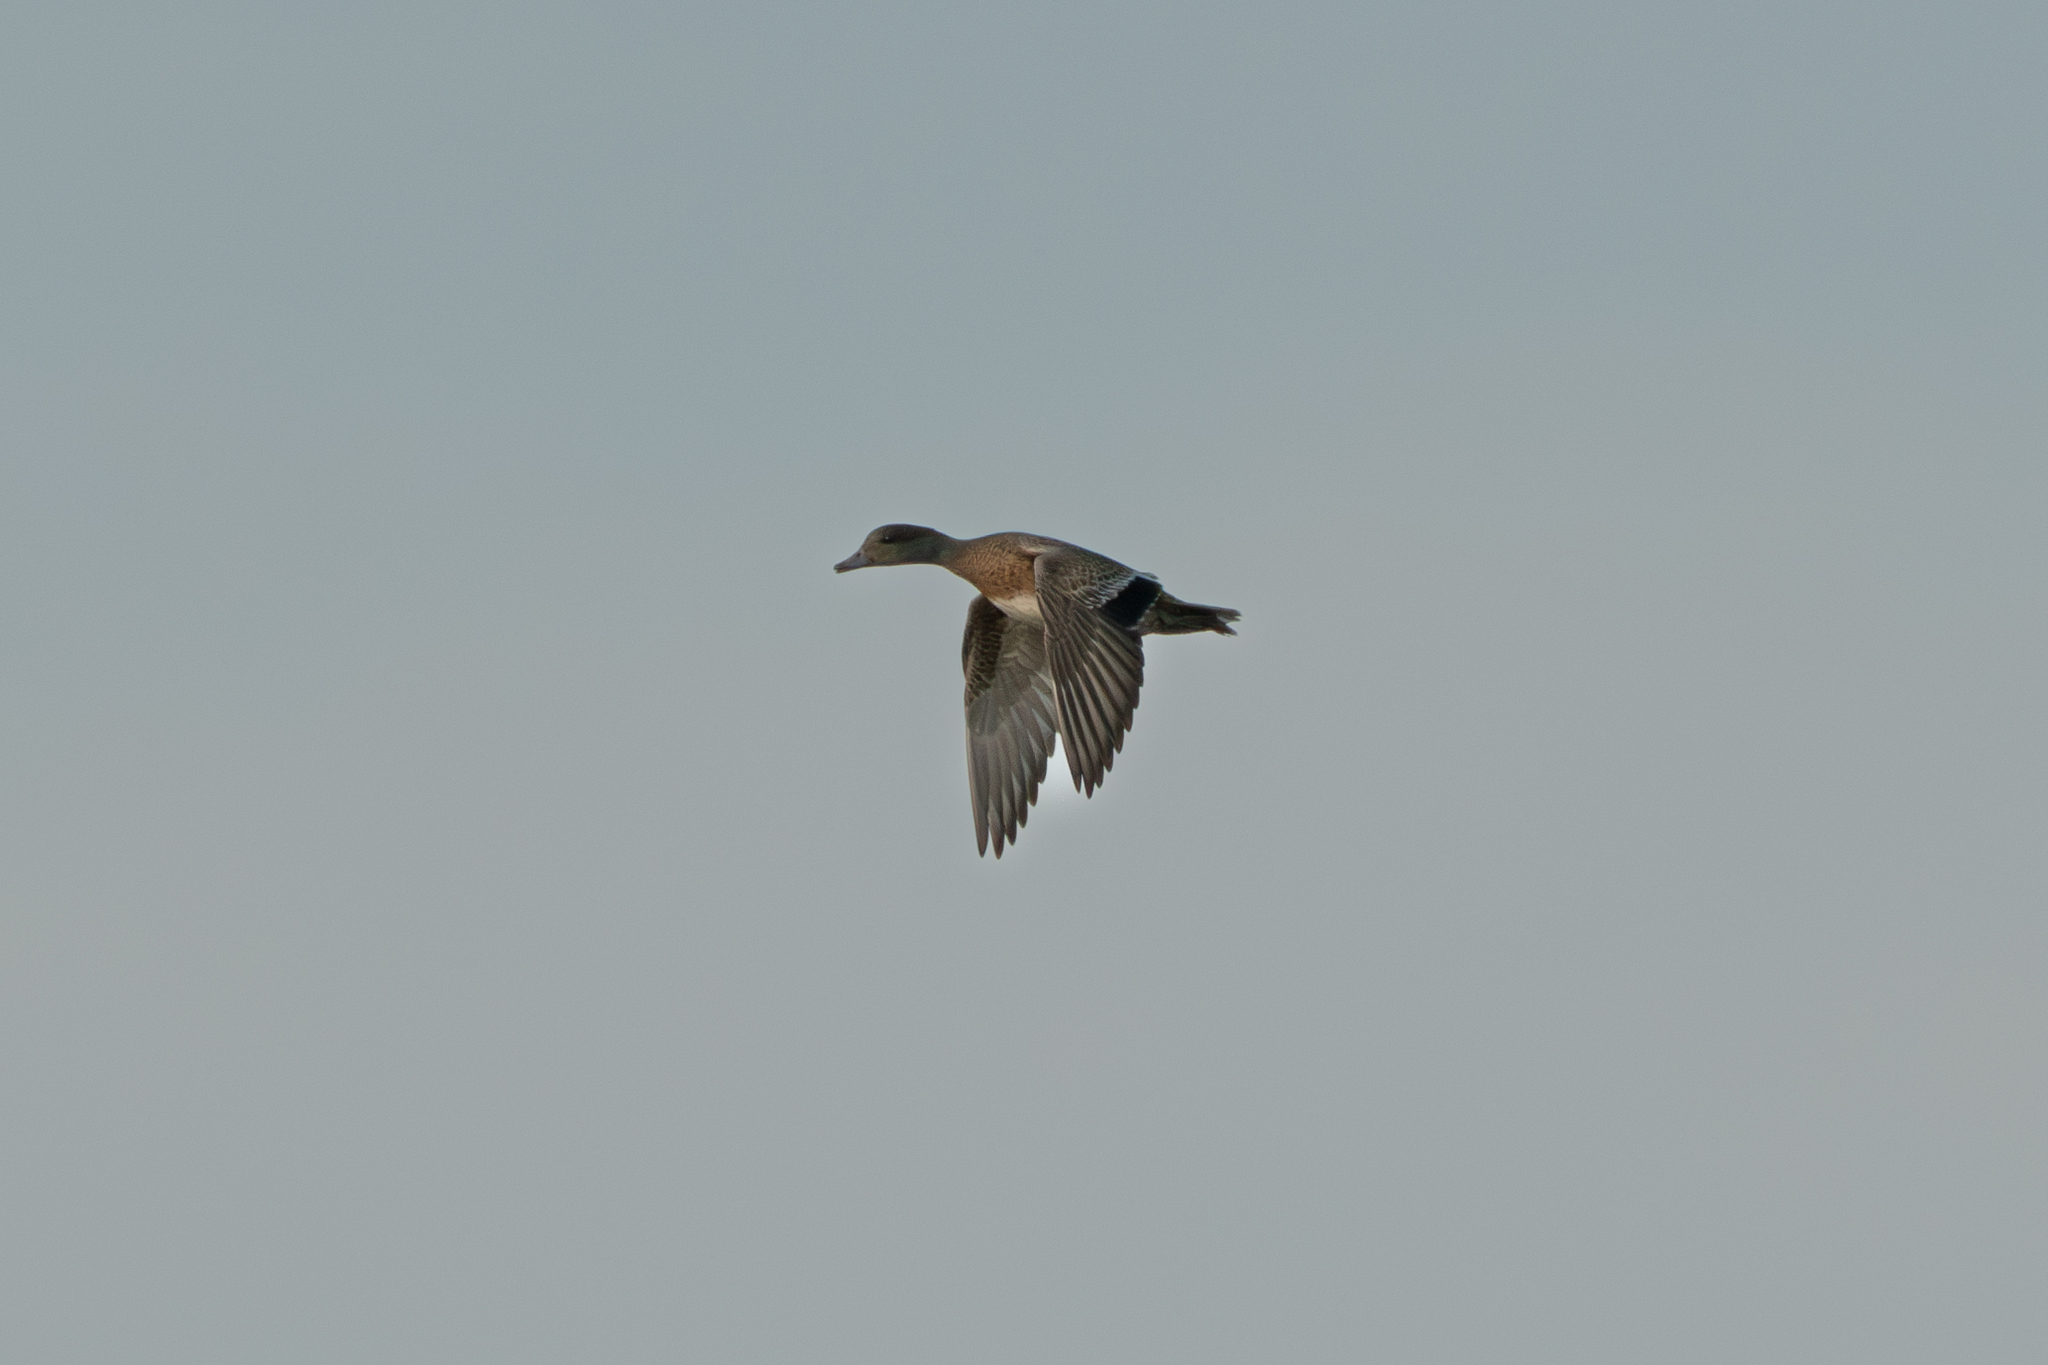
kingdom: Animalia
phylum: Chordata
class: Aves
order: Anseriformes
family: Anatidae
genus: Mareca
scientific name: Mareca americana
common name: American wigeon
